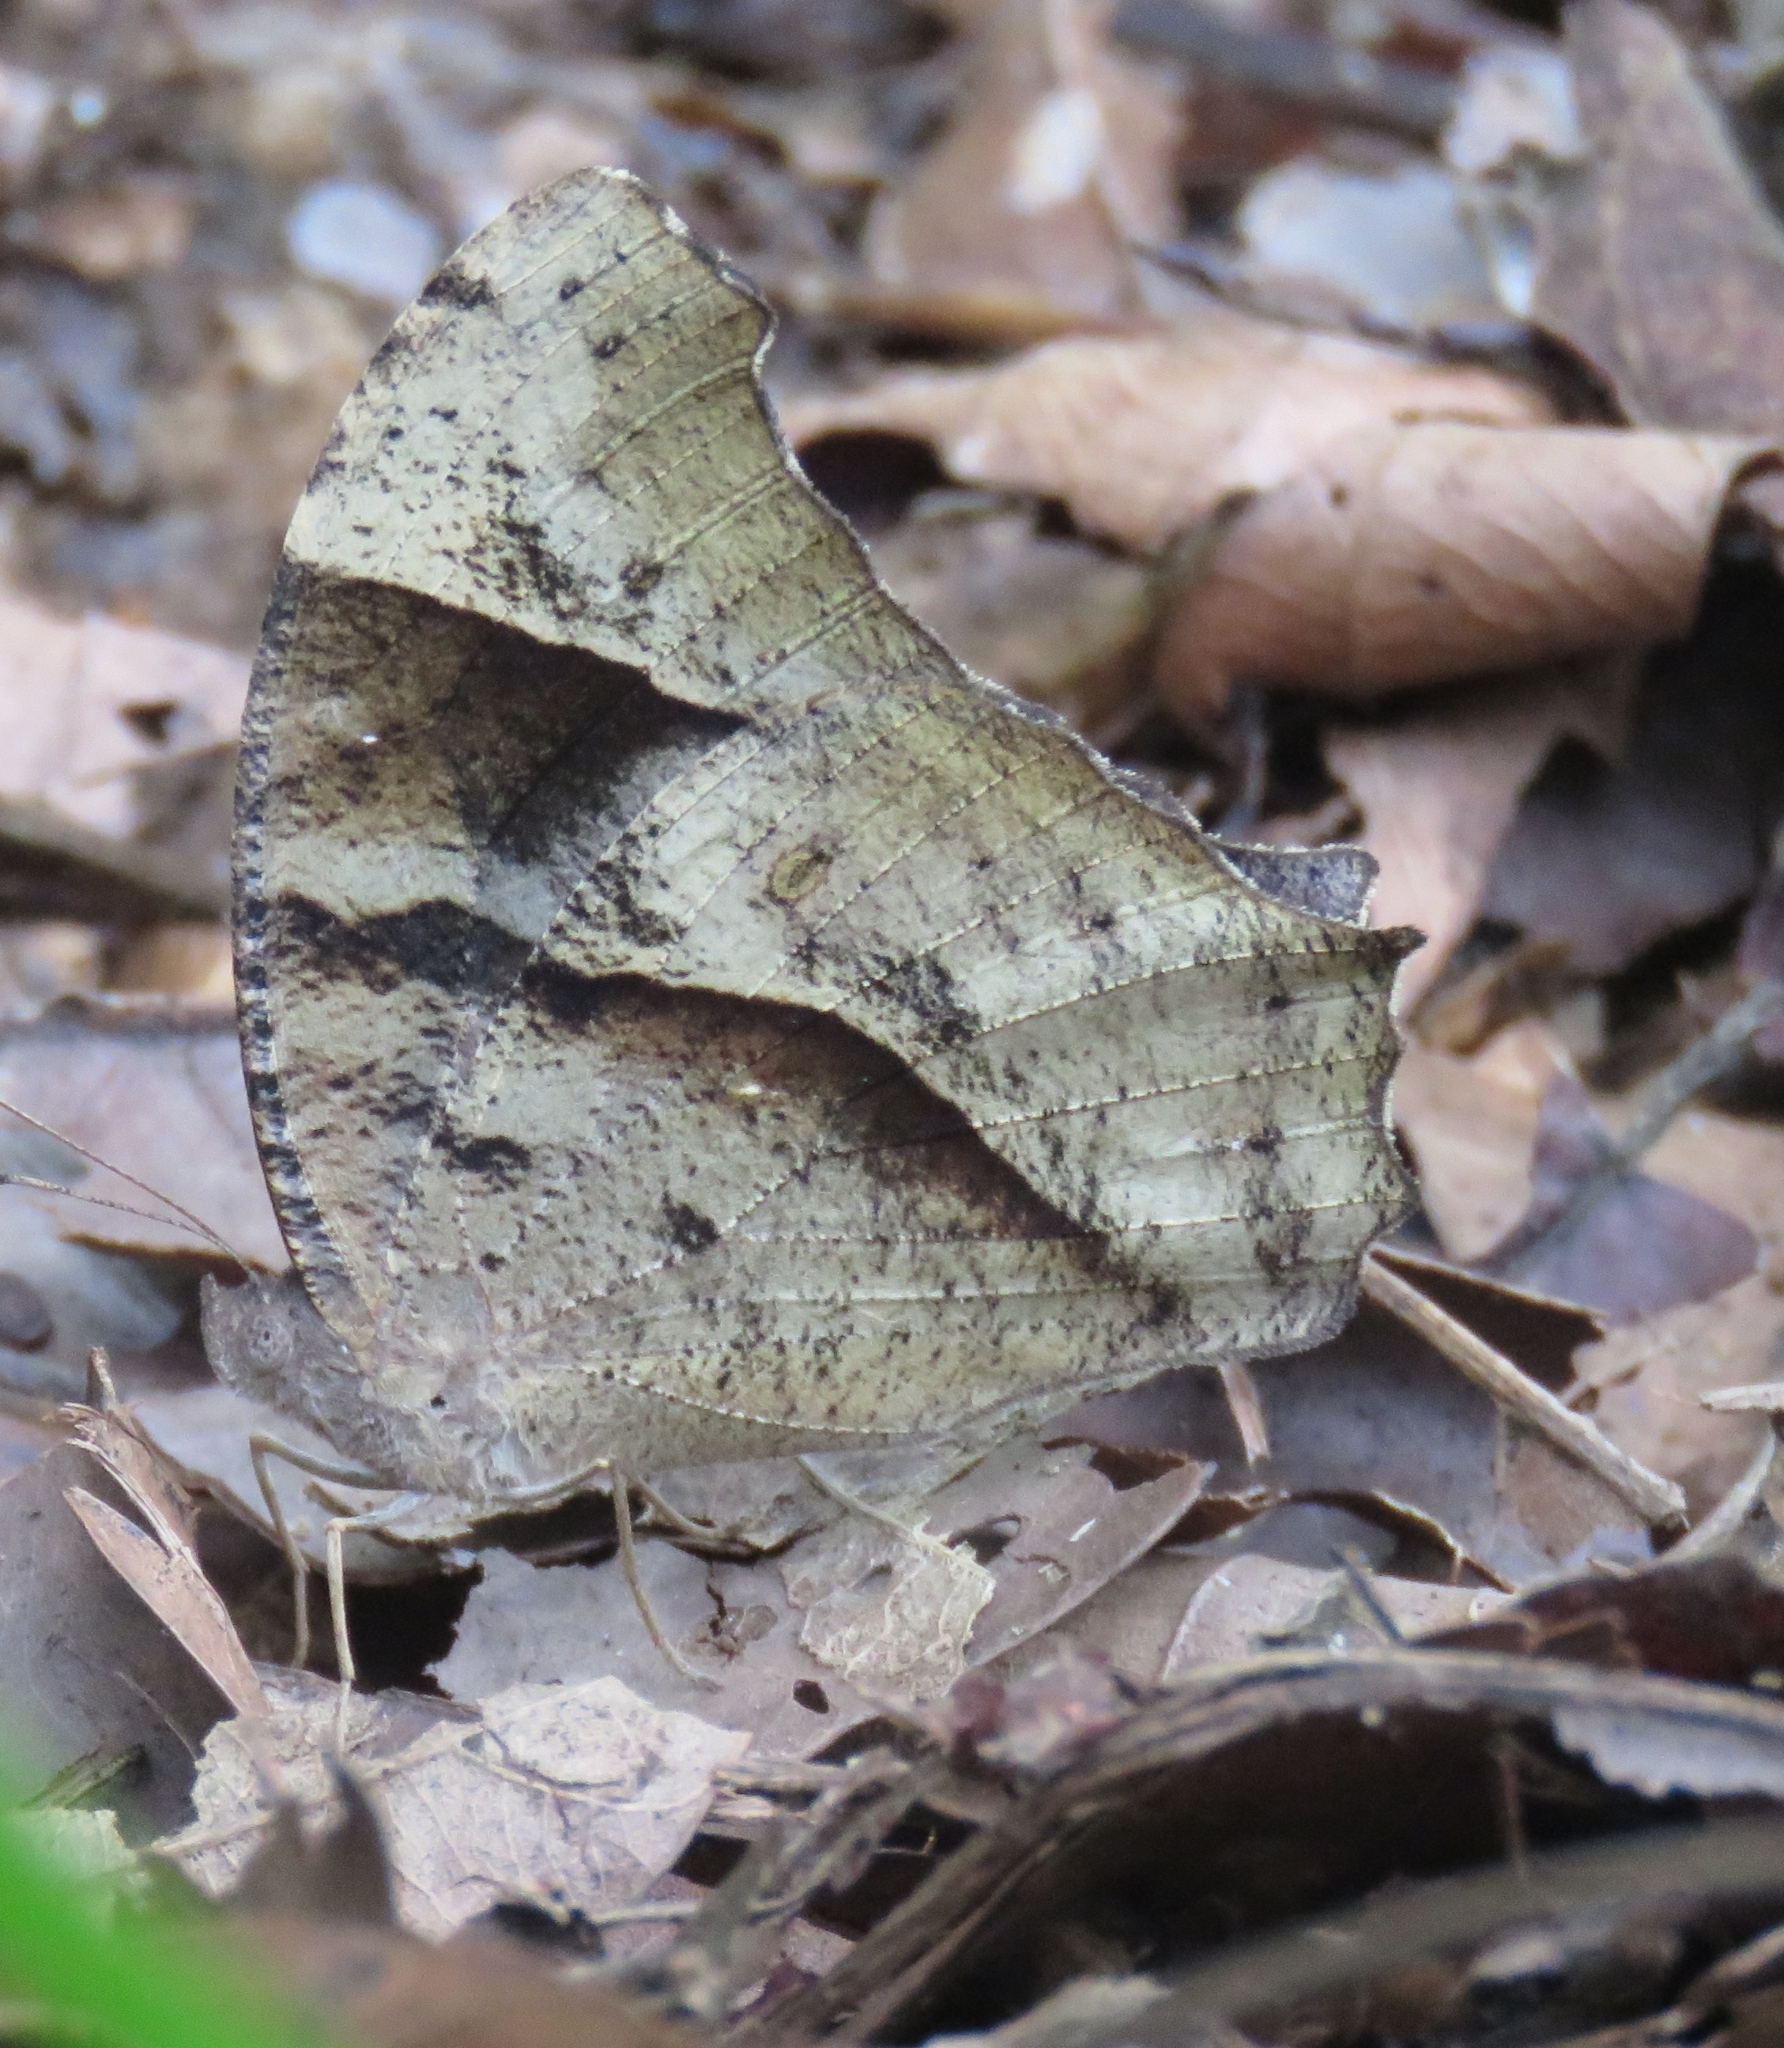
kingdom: Animalia
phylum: Arthropoda
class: Insecta
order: Lepidoptera
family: Nymphalidae
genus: Melanitis
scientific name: Melanitis leda
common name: Twilight brown
